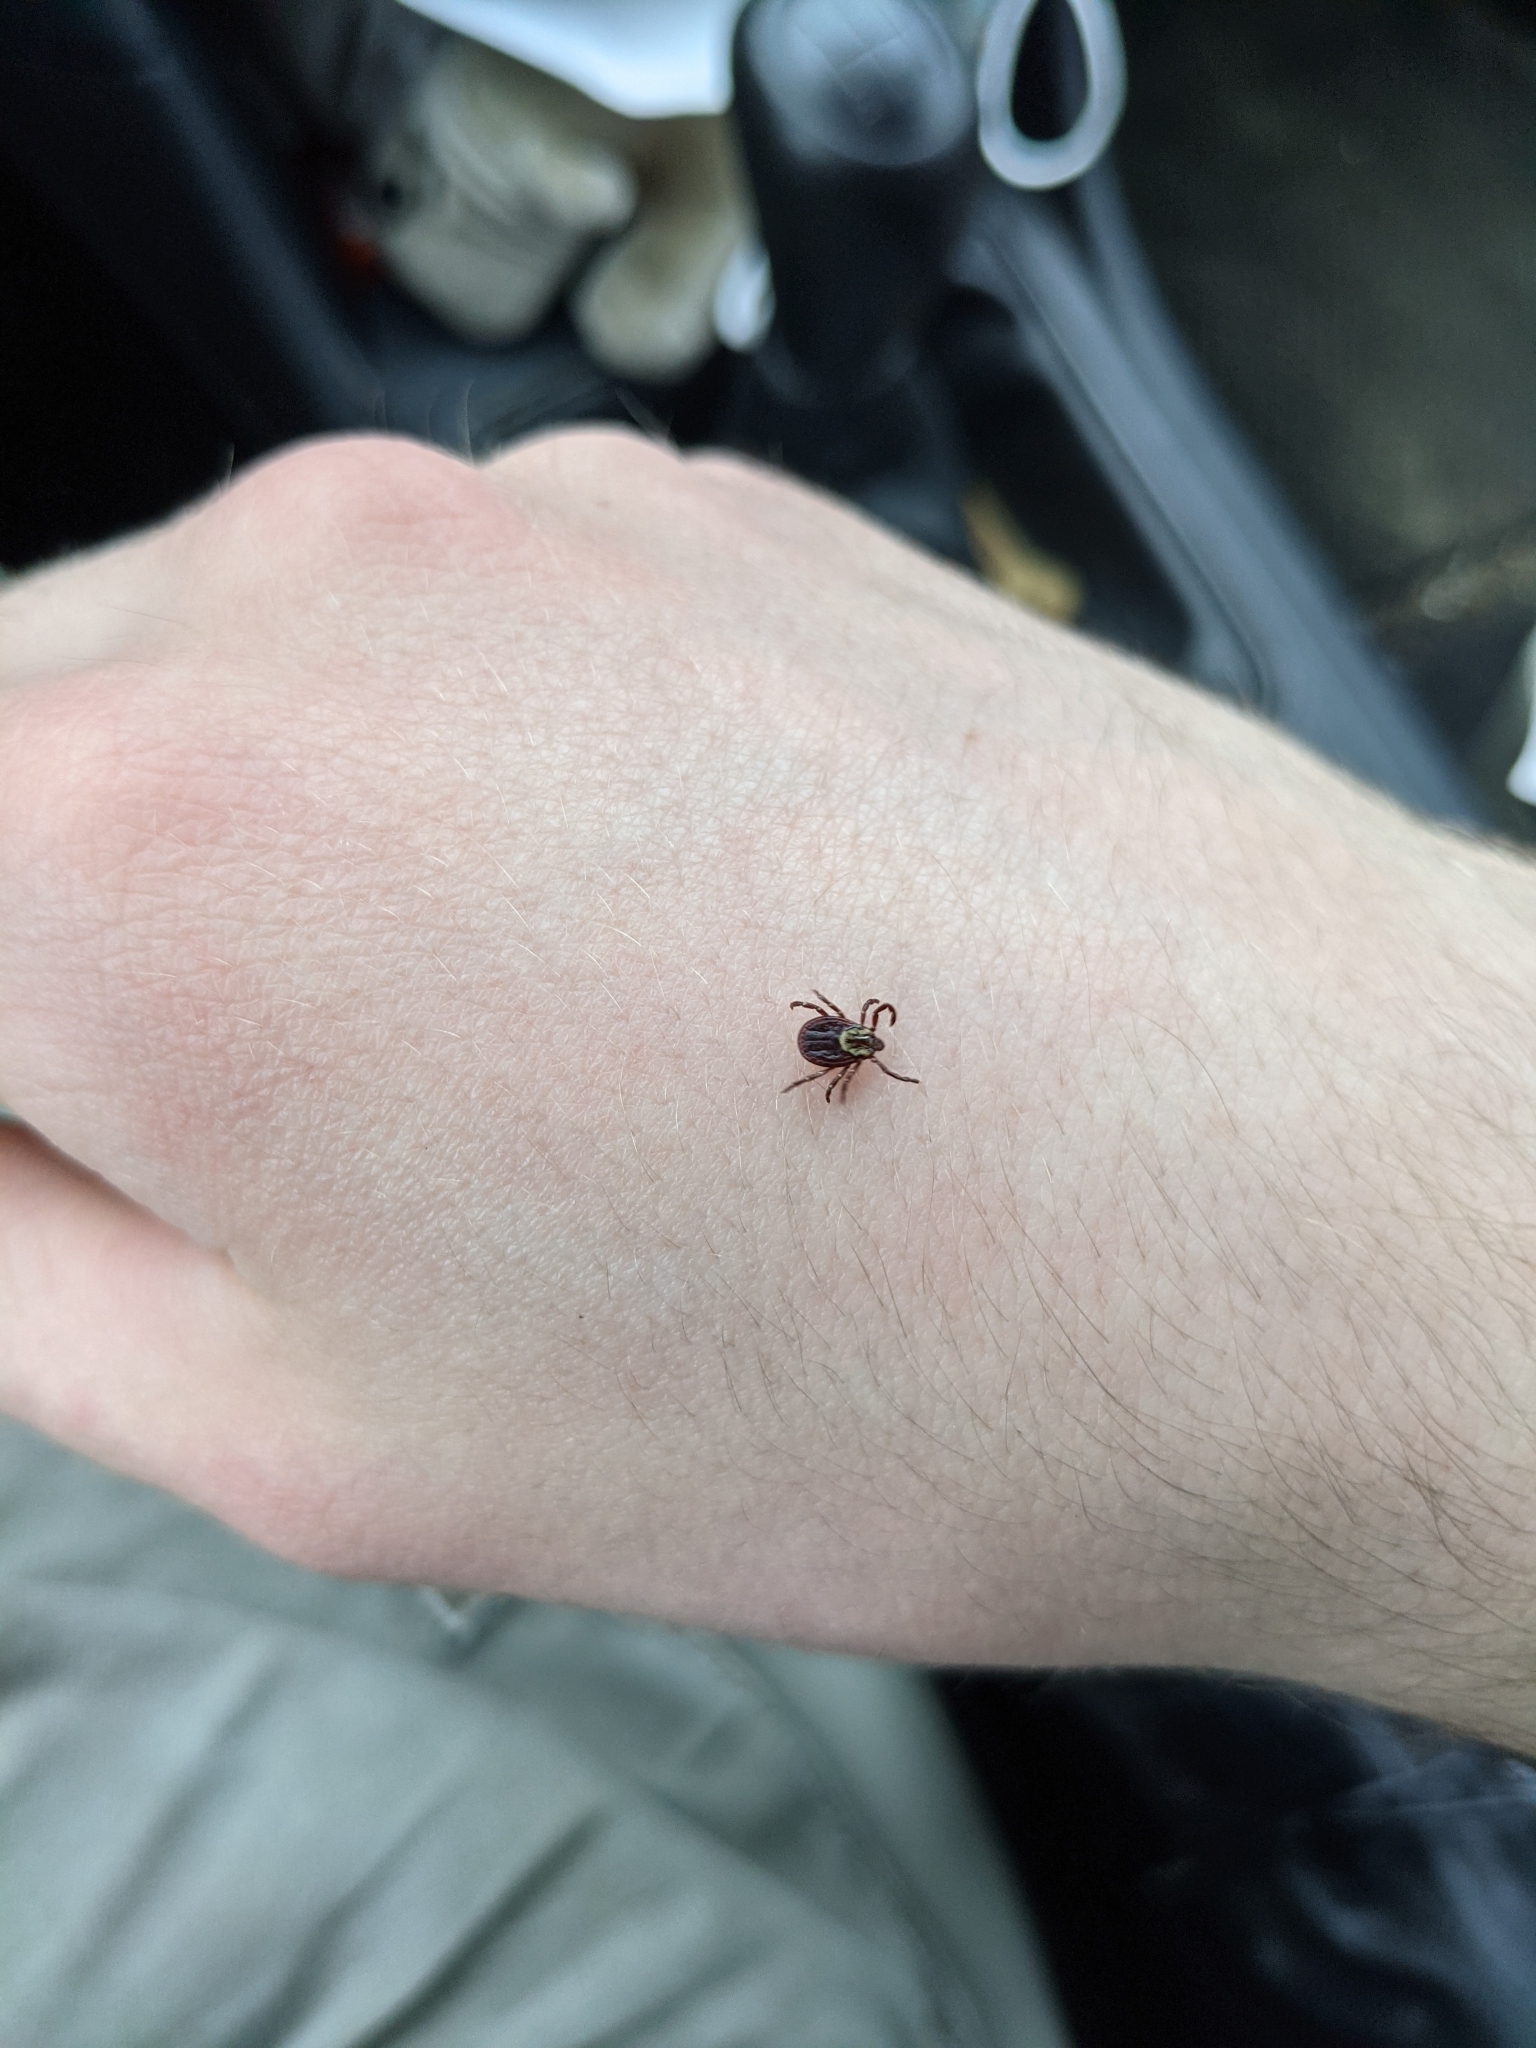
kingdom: Animalia
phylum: Arthropoda
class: Arachnida
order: Ixodida
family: Ixodidae
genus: Dermacentor
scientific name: Dermacentor variabilis
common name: American dog tick
